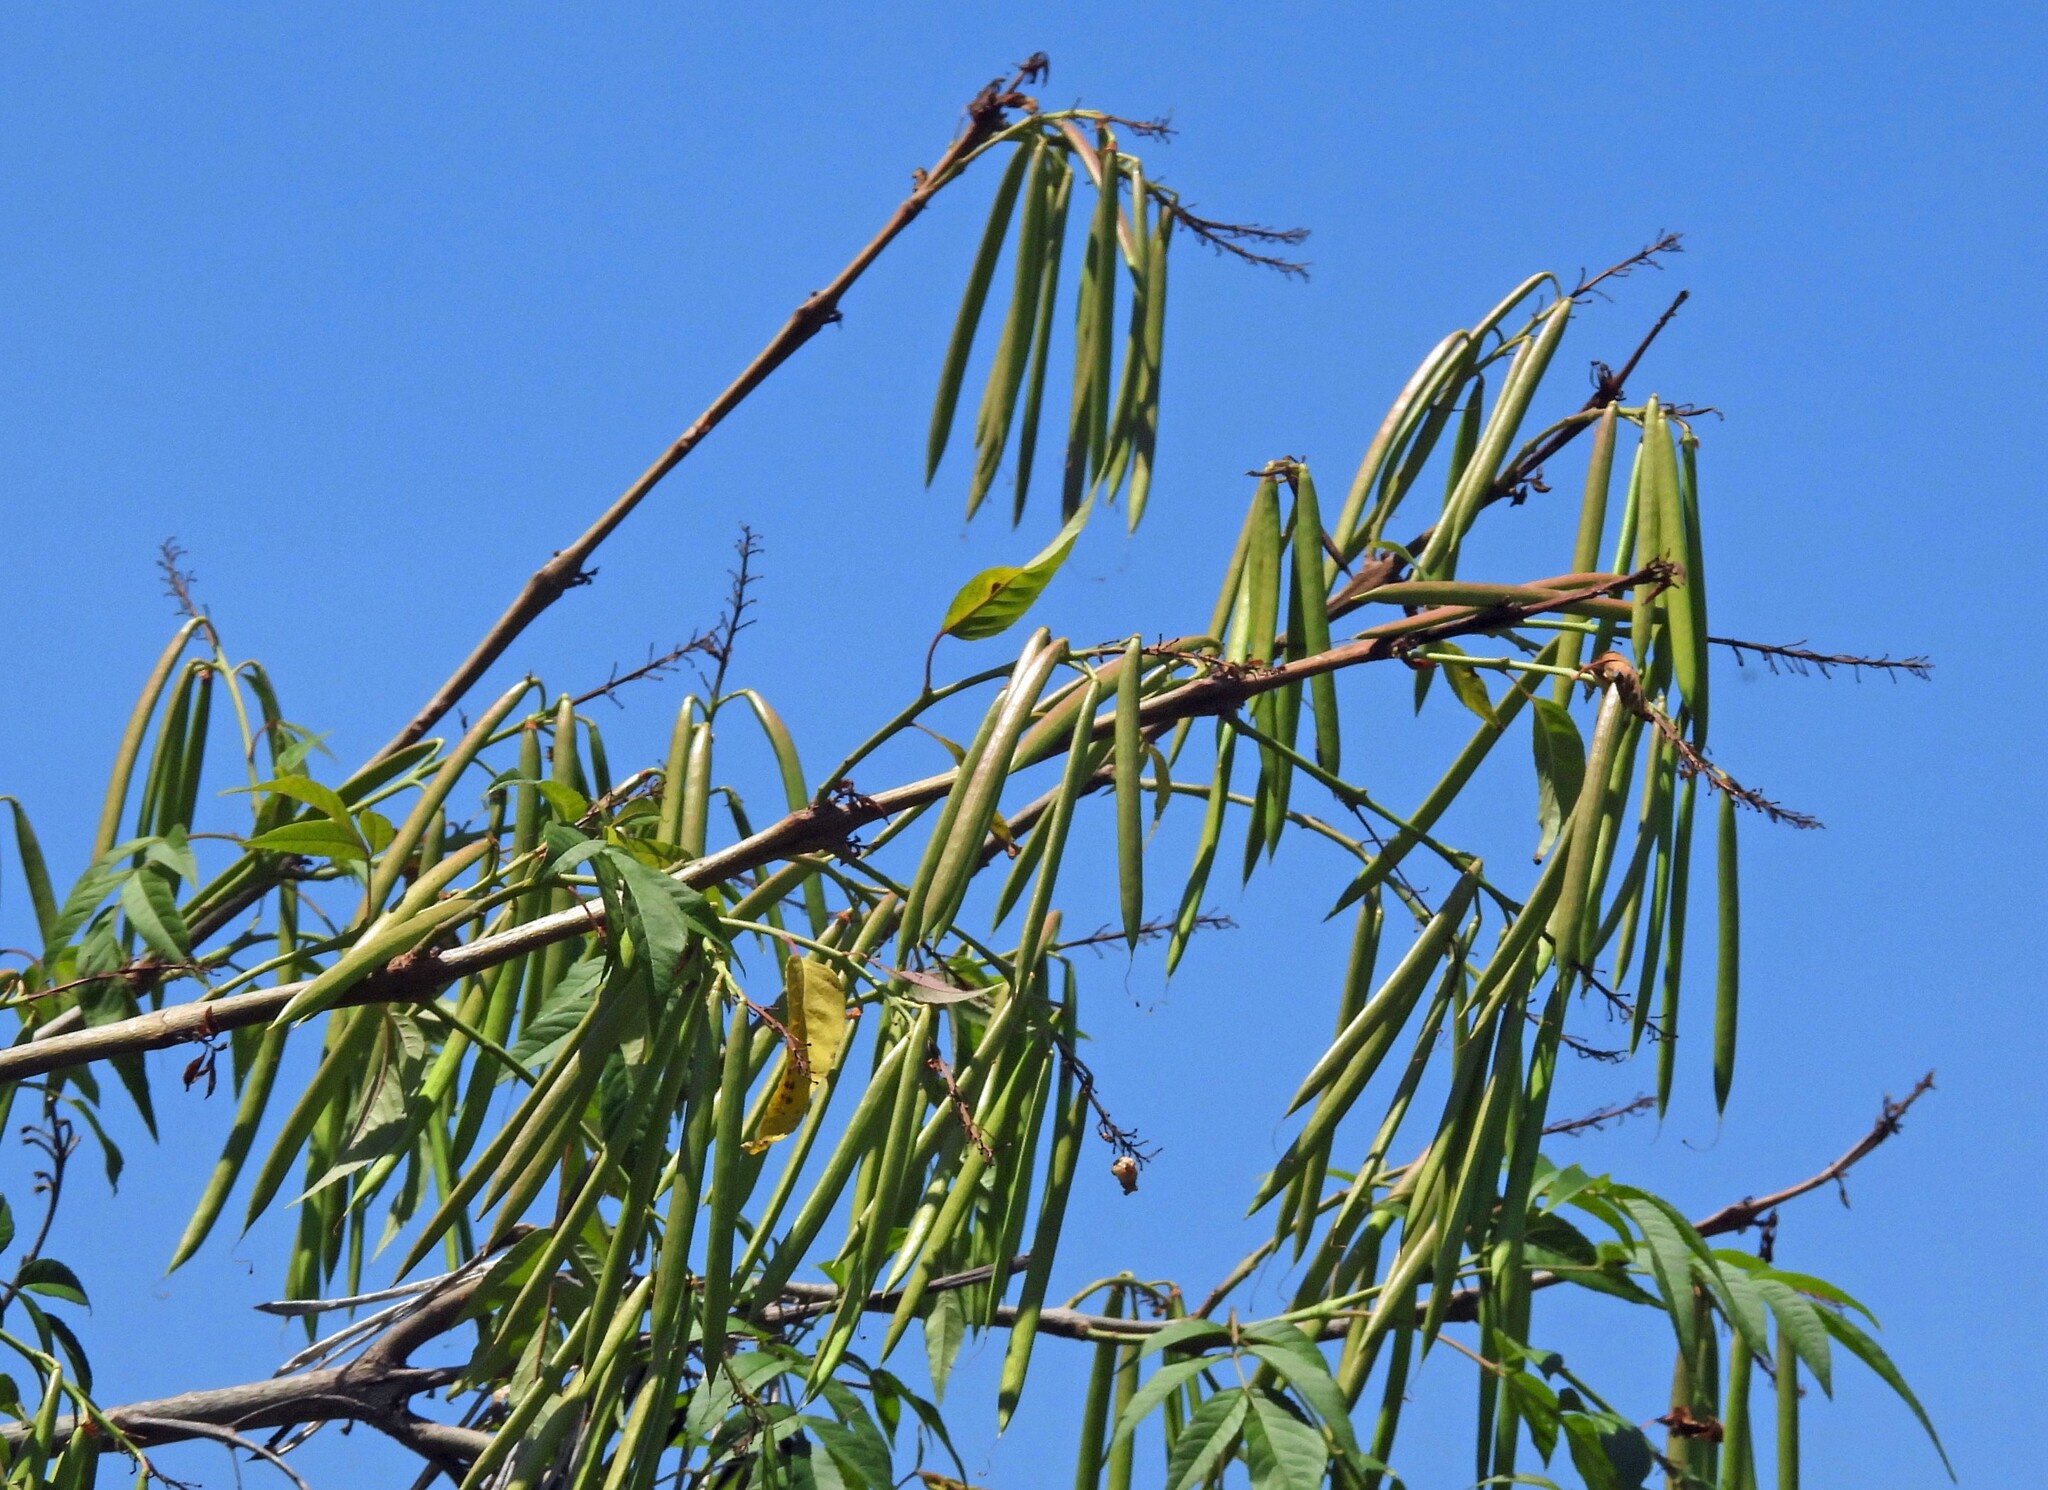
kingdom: Plantae
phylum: Tracheophyta
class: Magnoliopsida
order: Lamiales
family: Bignoniaceae
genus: Tecoma
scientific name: Tecoma stans
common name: Yellow trumpetbush
